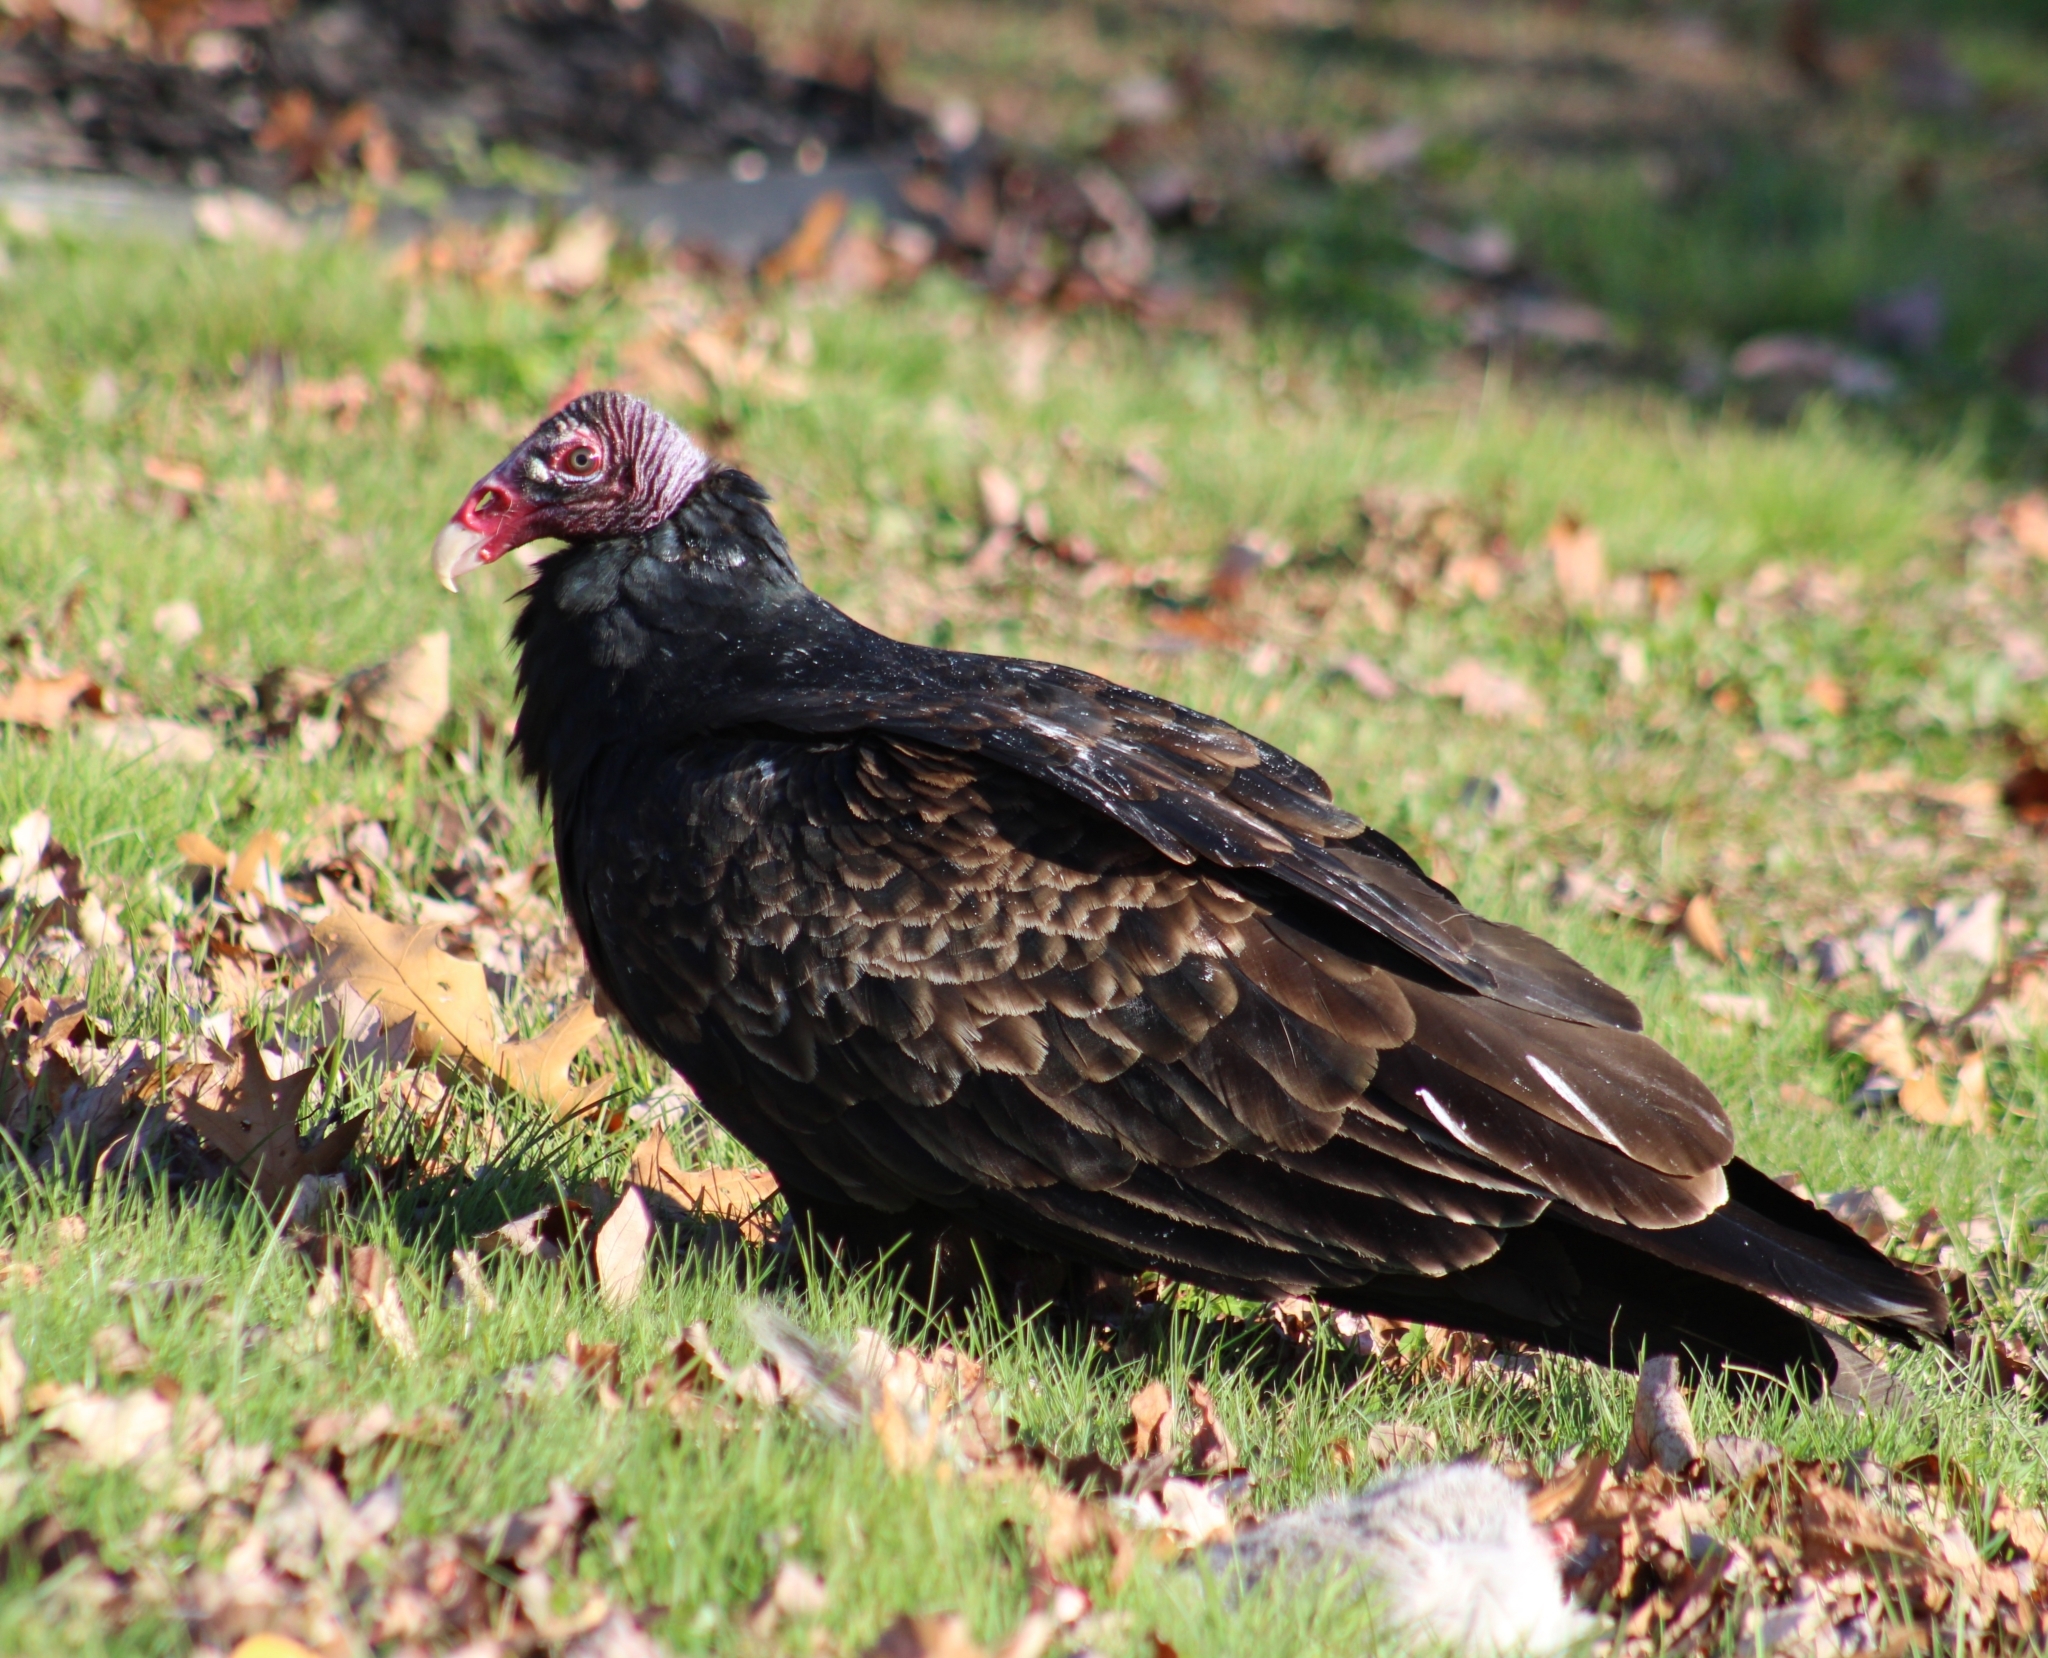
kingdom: Animalia
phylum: Chordata
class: Aves
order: Accipitriformes
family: Cathartidae
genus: Cathartes
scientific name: Cathartes aura
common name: Turkey vulture
